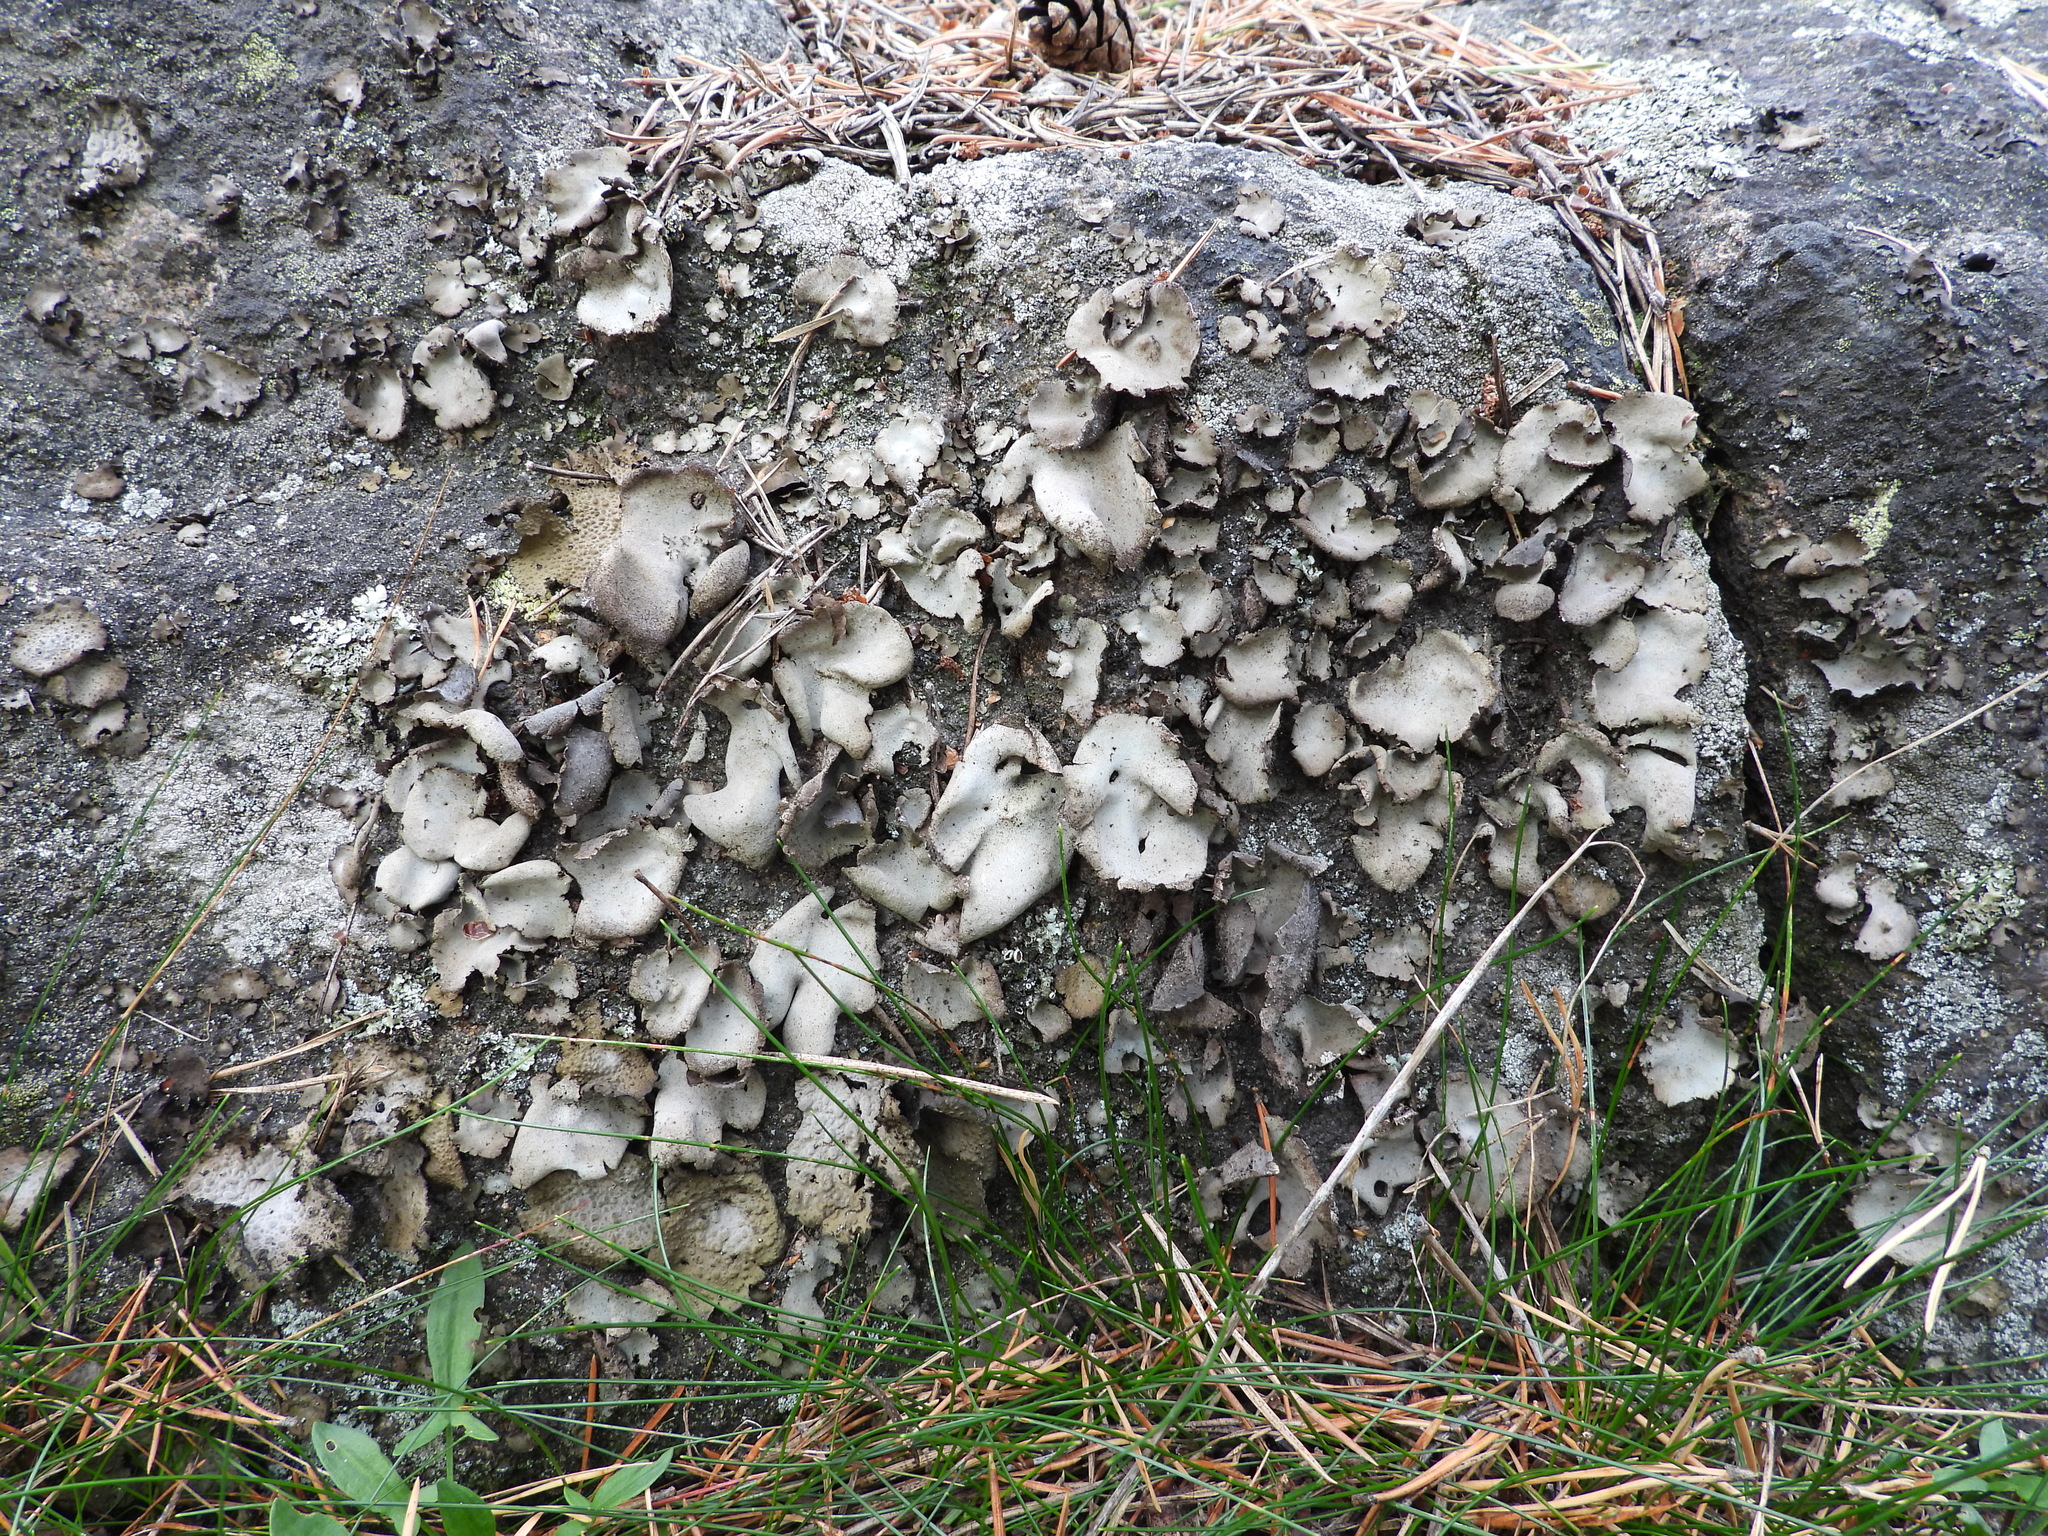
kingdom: Fungi
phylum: Ascomycota
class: Lecanoromycetes
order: Umbilicariales
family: Umbilicariaceae
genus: Umbilicaria
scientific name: Umbilicaria hirsuta
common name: Granulating rocktripe lichen
